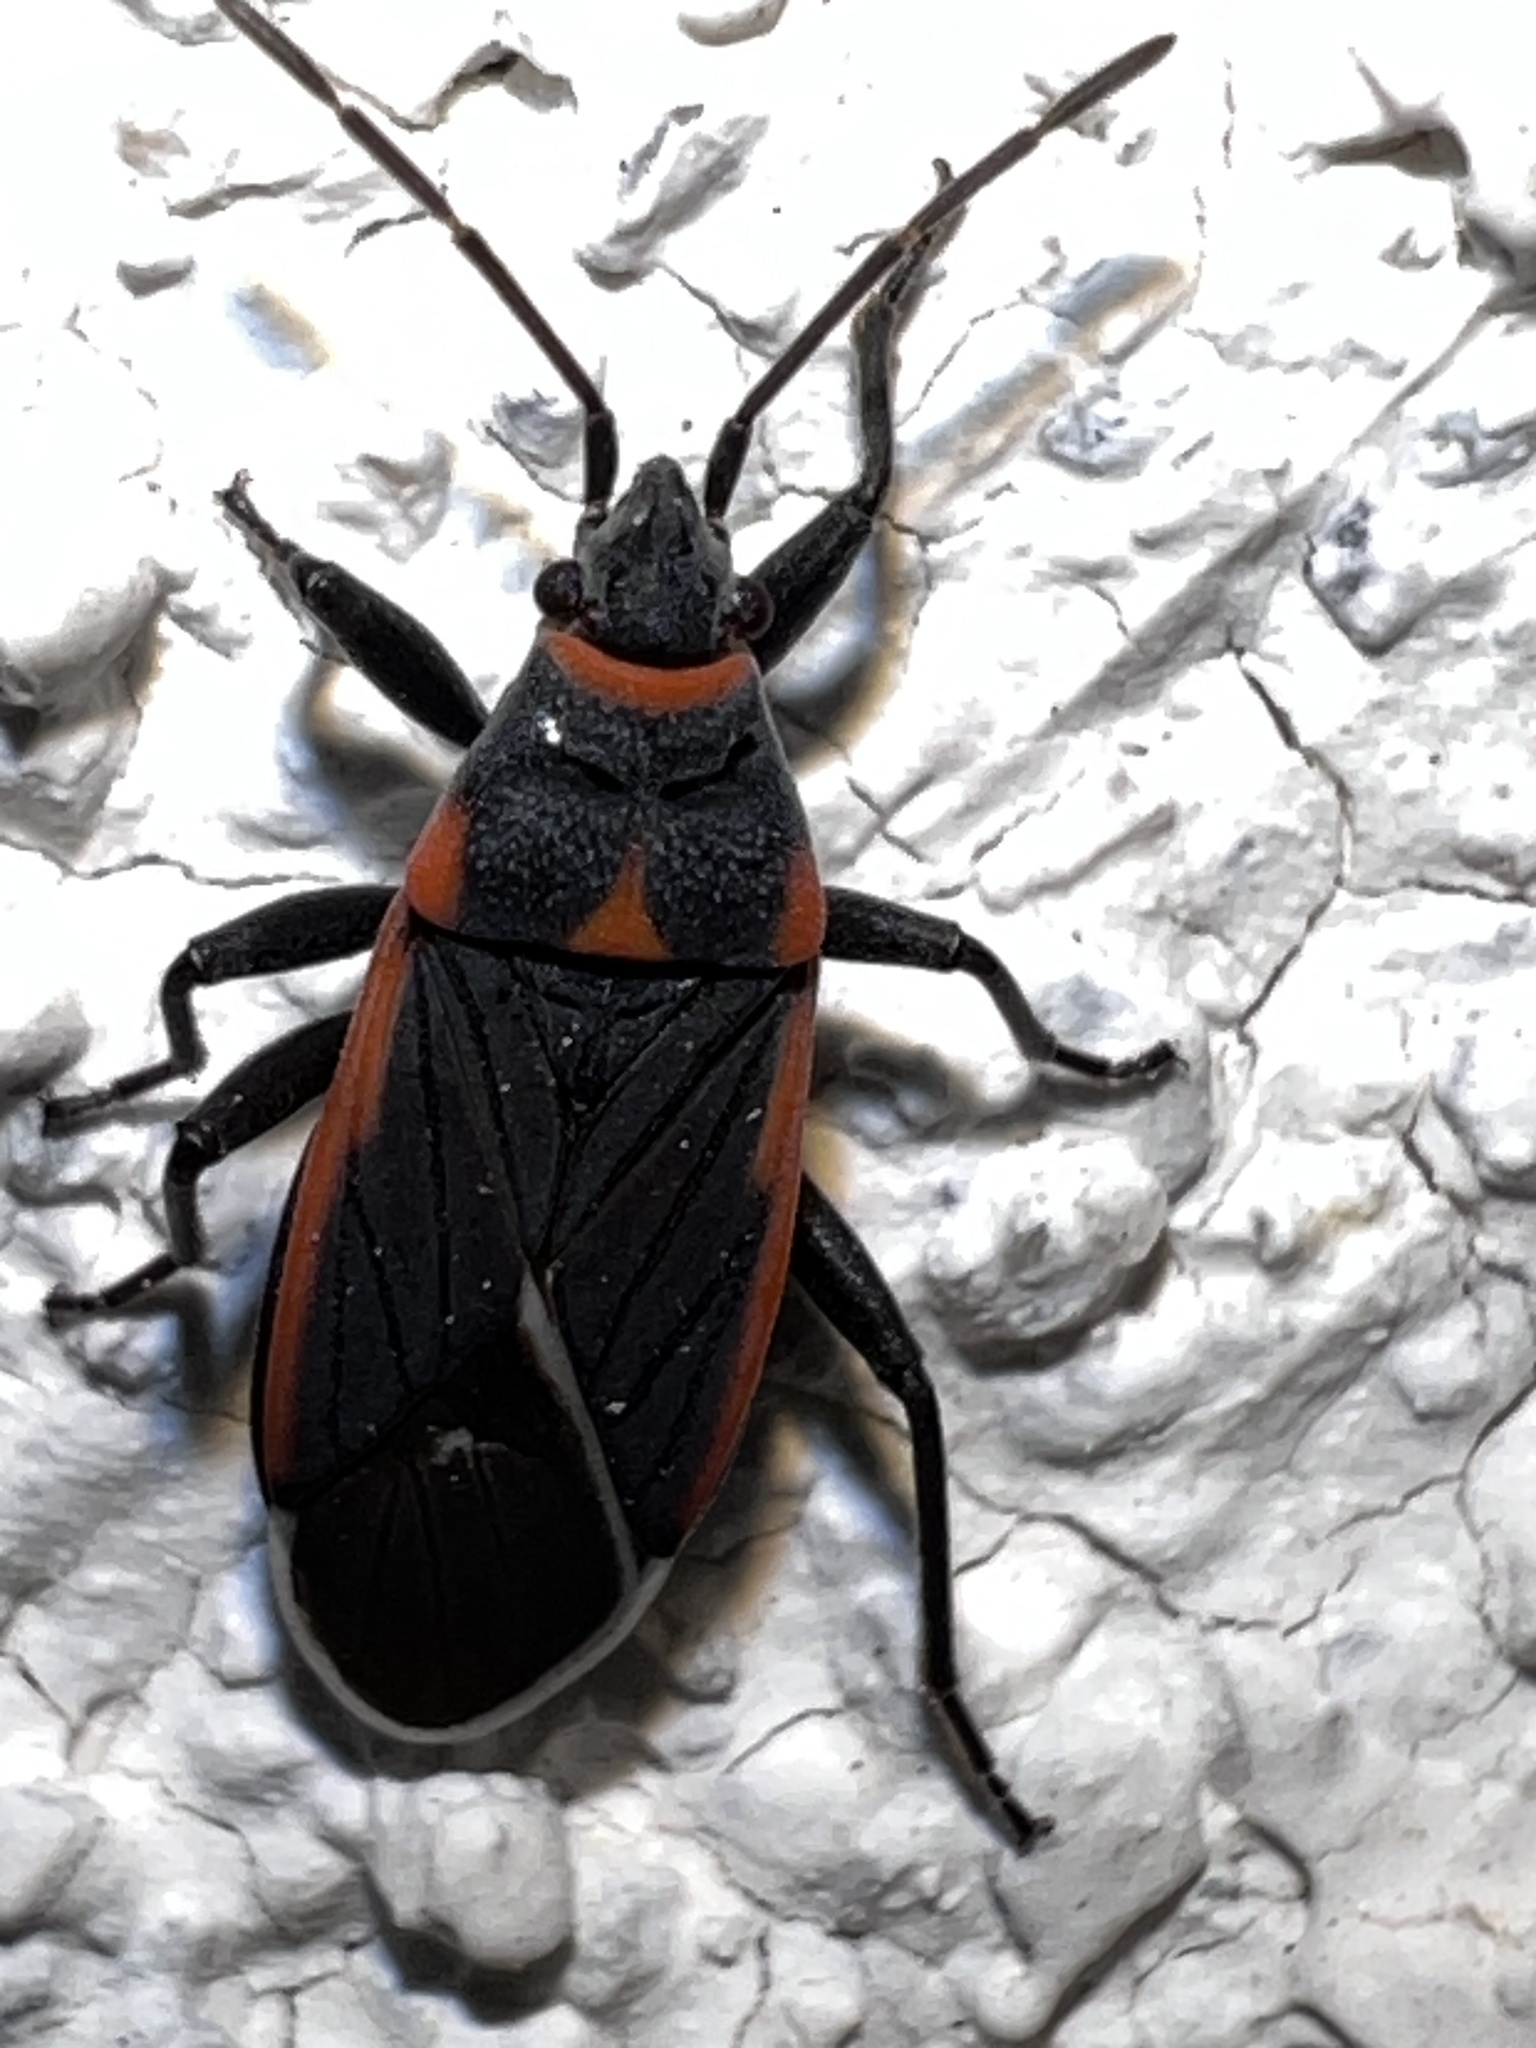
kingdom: Animalia
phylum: Arthropoda
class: Insecta
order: Hemiptera
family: Lygaeidae
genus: Melacoryphus
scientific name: Melacoryphus lateralis
